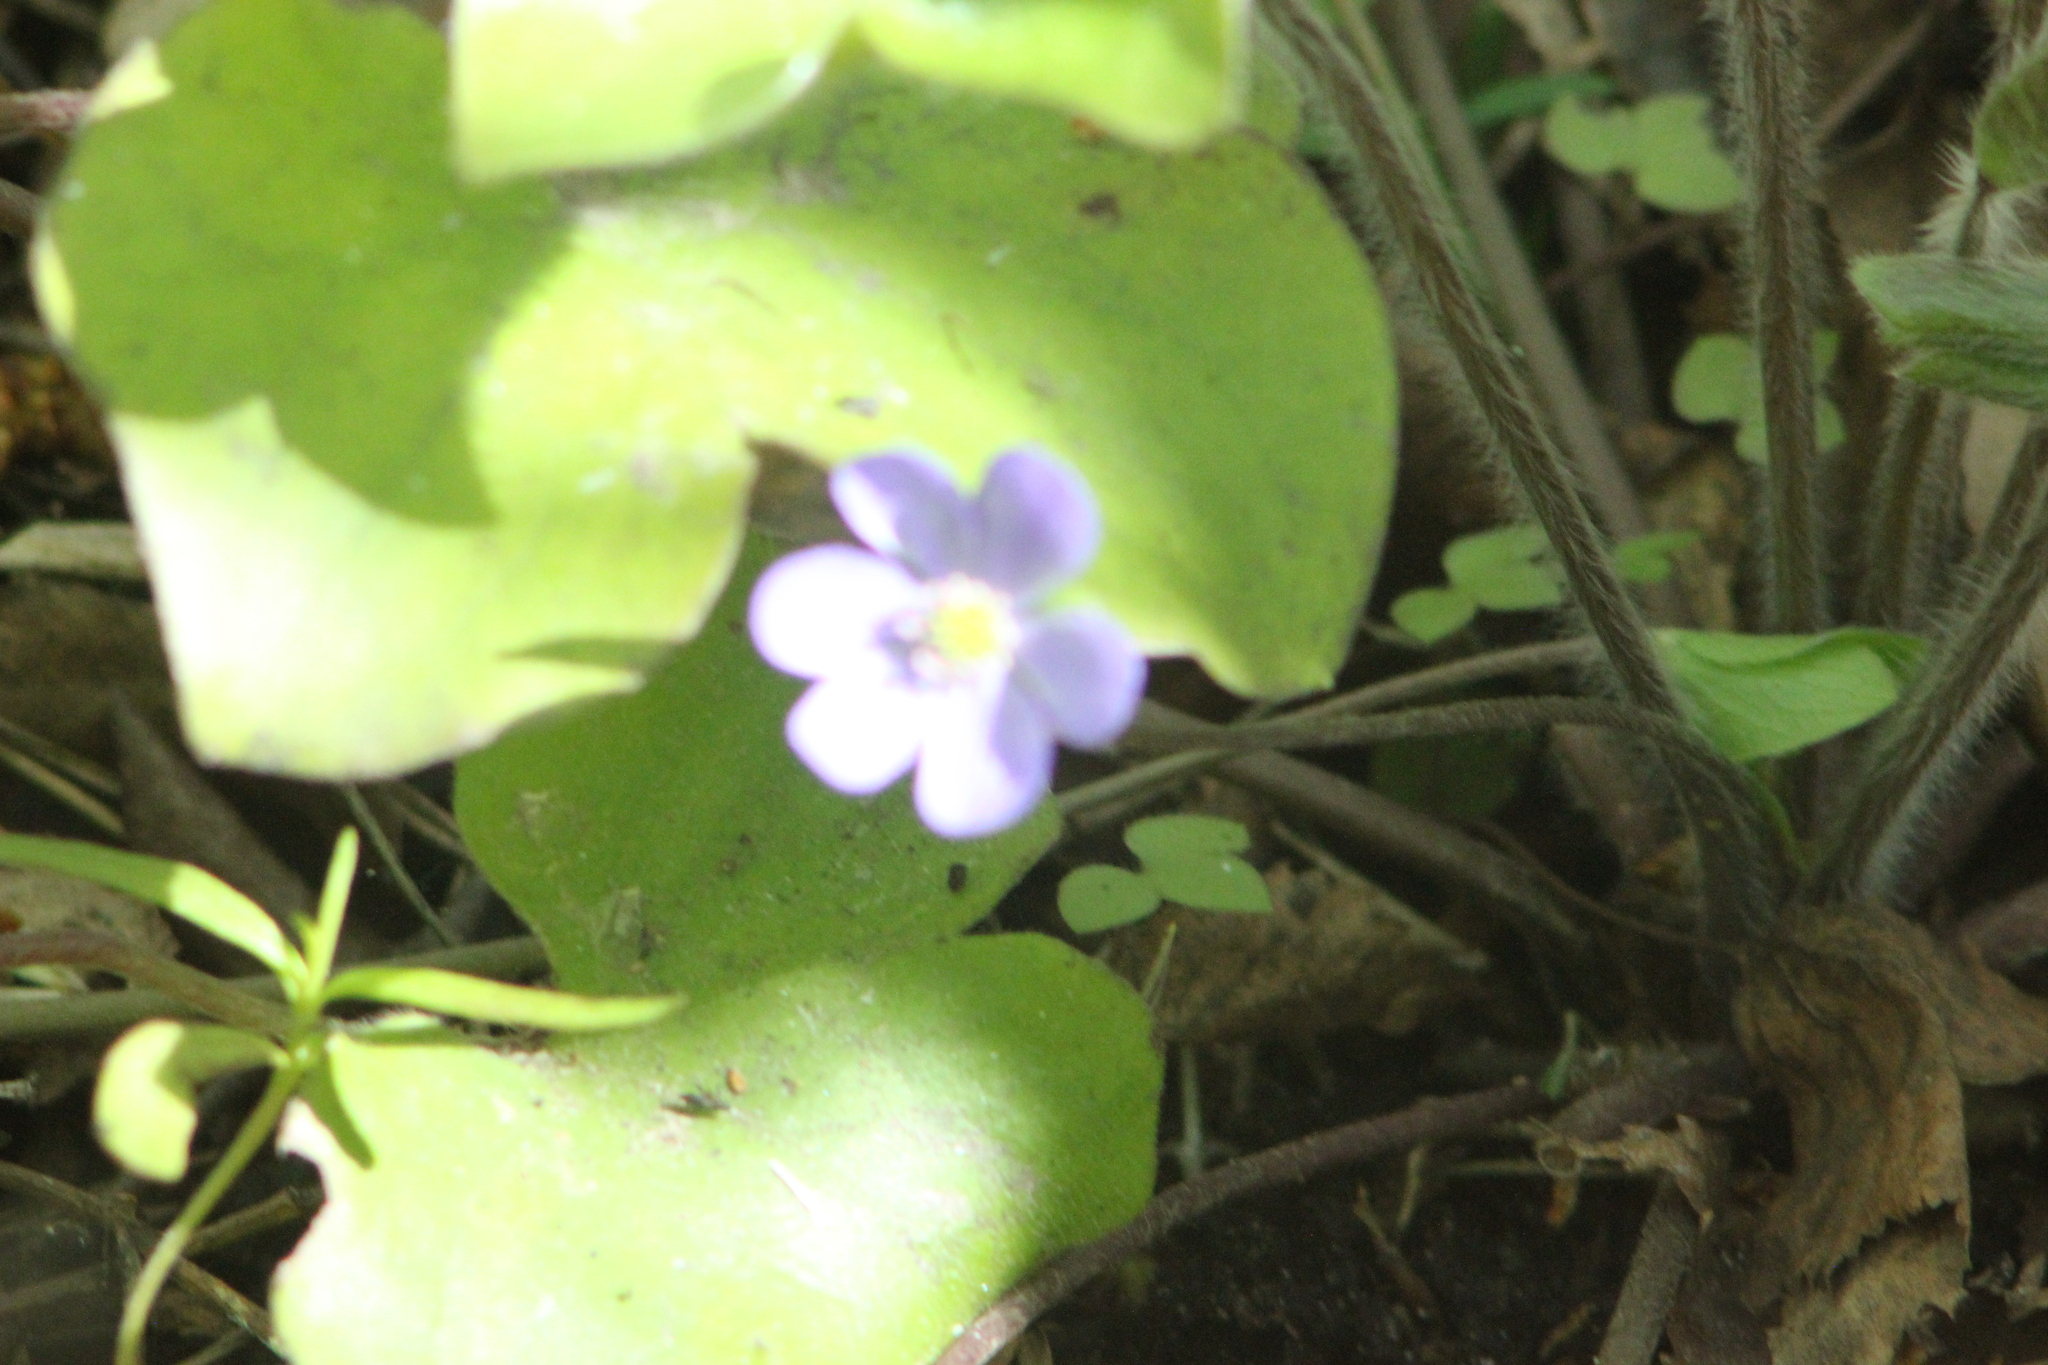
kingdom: Plantae
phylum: Tracheophyta
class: Magnoliopsida
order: Ranunculales
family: Ranunculaceae
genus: Hepatica
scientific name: Hepatica nobilis
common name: Liverleaf
